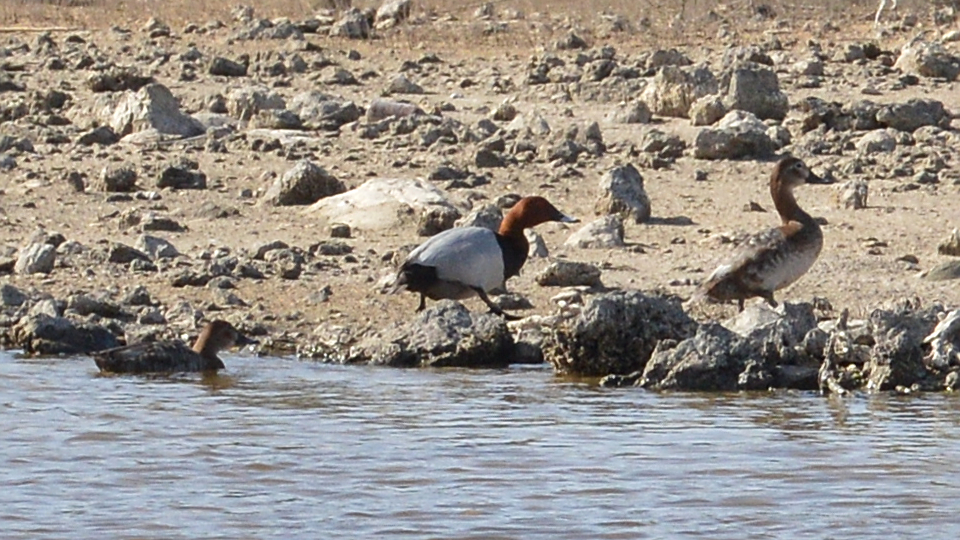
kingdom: Animalia
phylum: Chordata
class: Aves
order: Anseriformes
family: Anatidae
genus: Aythya
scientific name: Aythya ferina
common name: Common pochard
